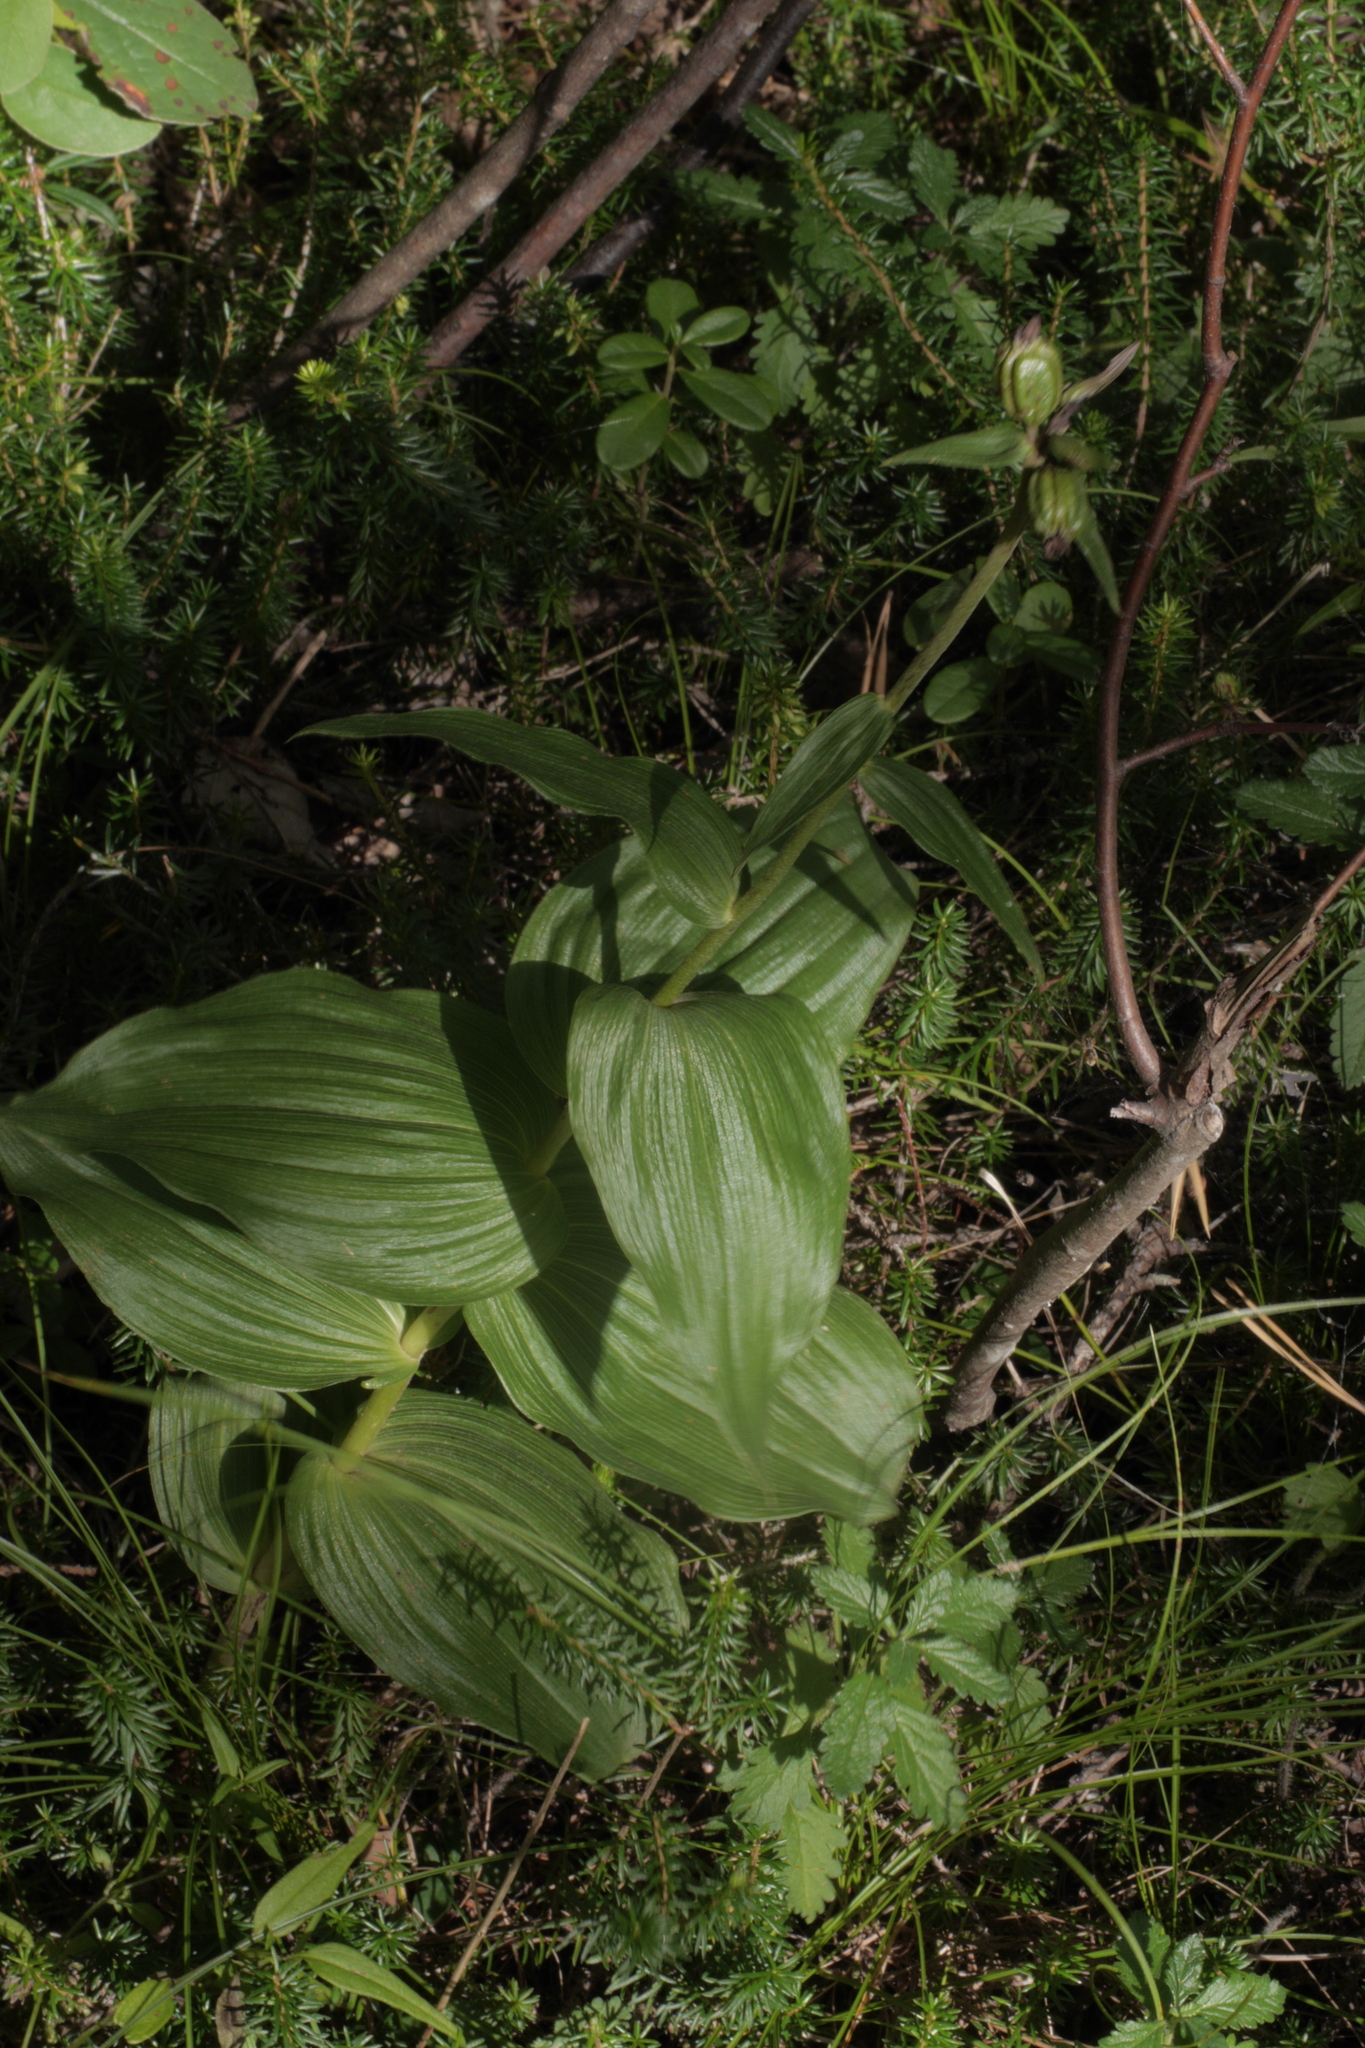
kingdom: Plantae
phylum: Tracheophyta
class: Liliopsida
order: Asparagales
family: Orchidaceae
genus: Epipactis
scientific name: Epipactis helleborine
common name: Broad-leaved helleborine
